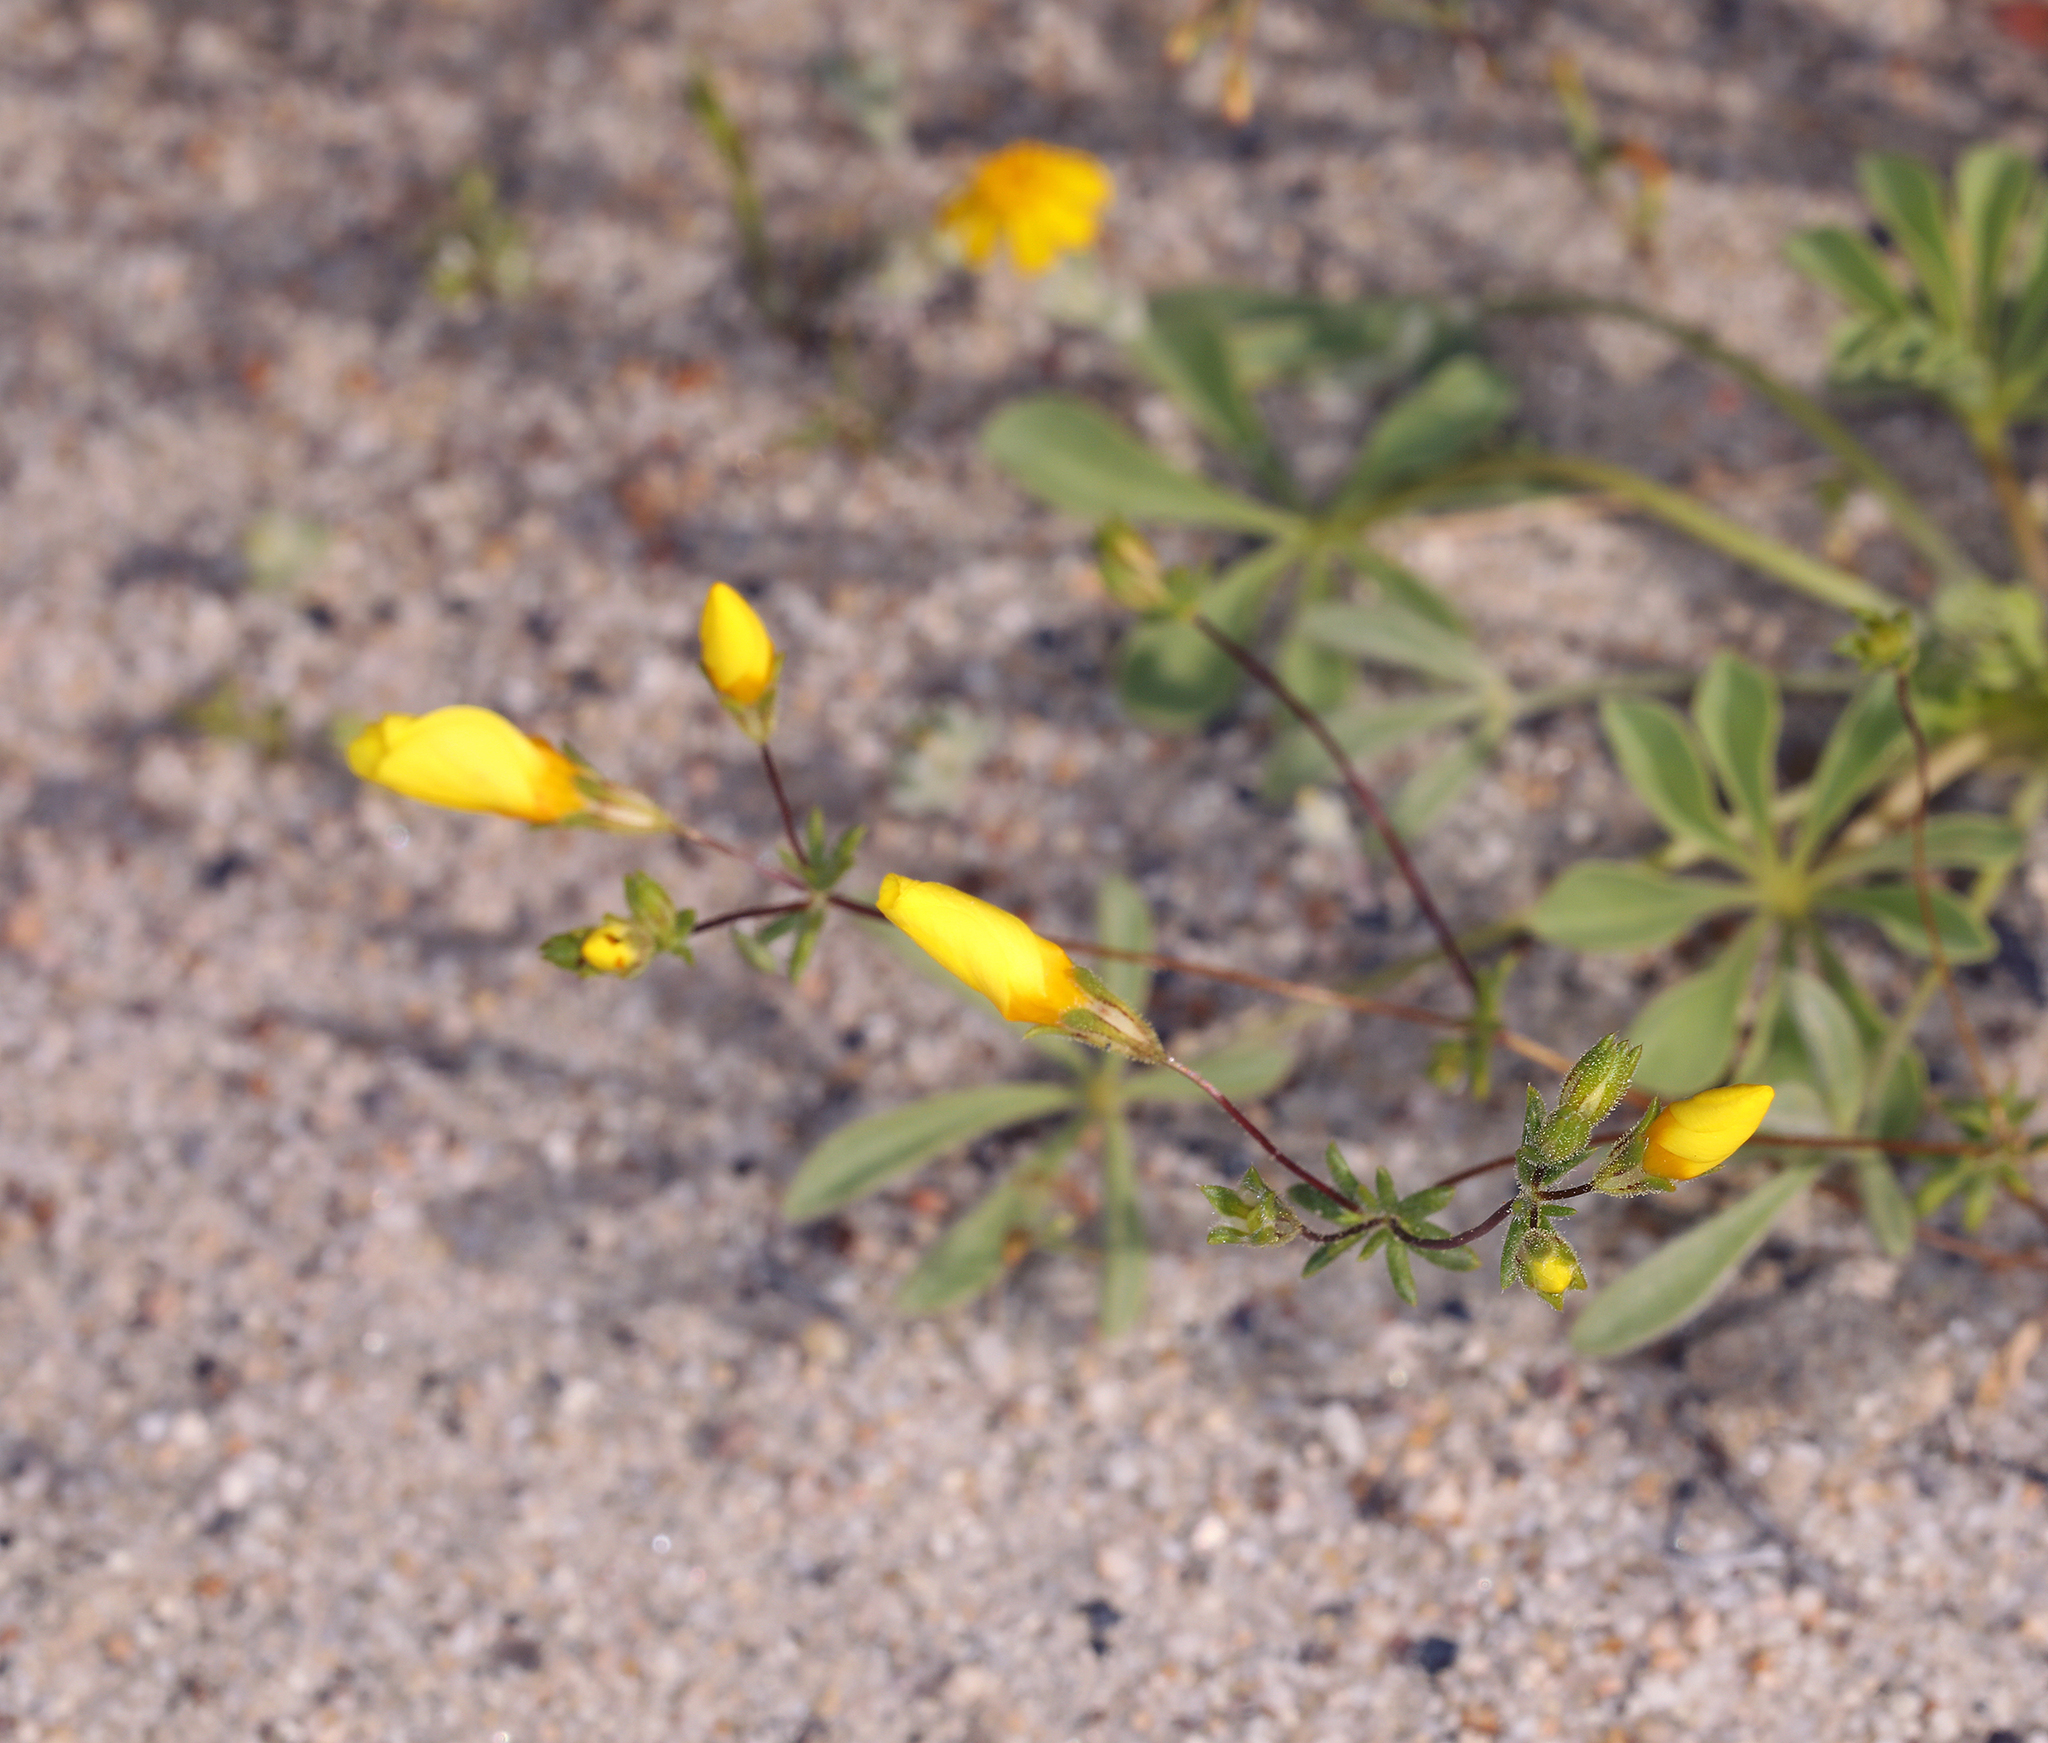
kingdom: Plantae
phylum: Tracheophyta
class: Magnoliopsida
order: Ericales
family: Polemoniaceae
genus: Leptosiphon
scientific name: Leptosiphon chrysanthus
